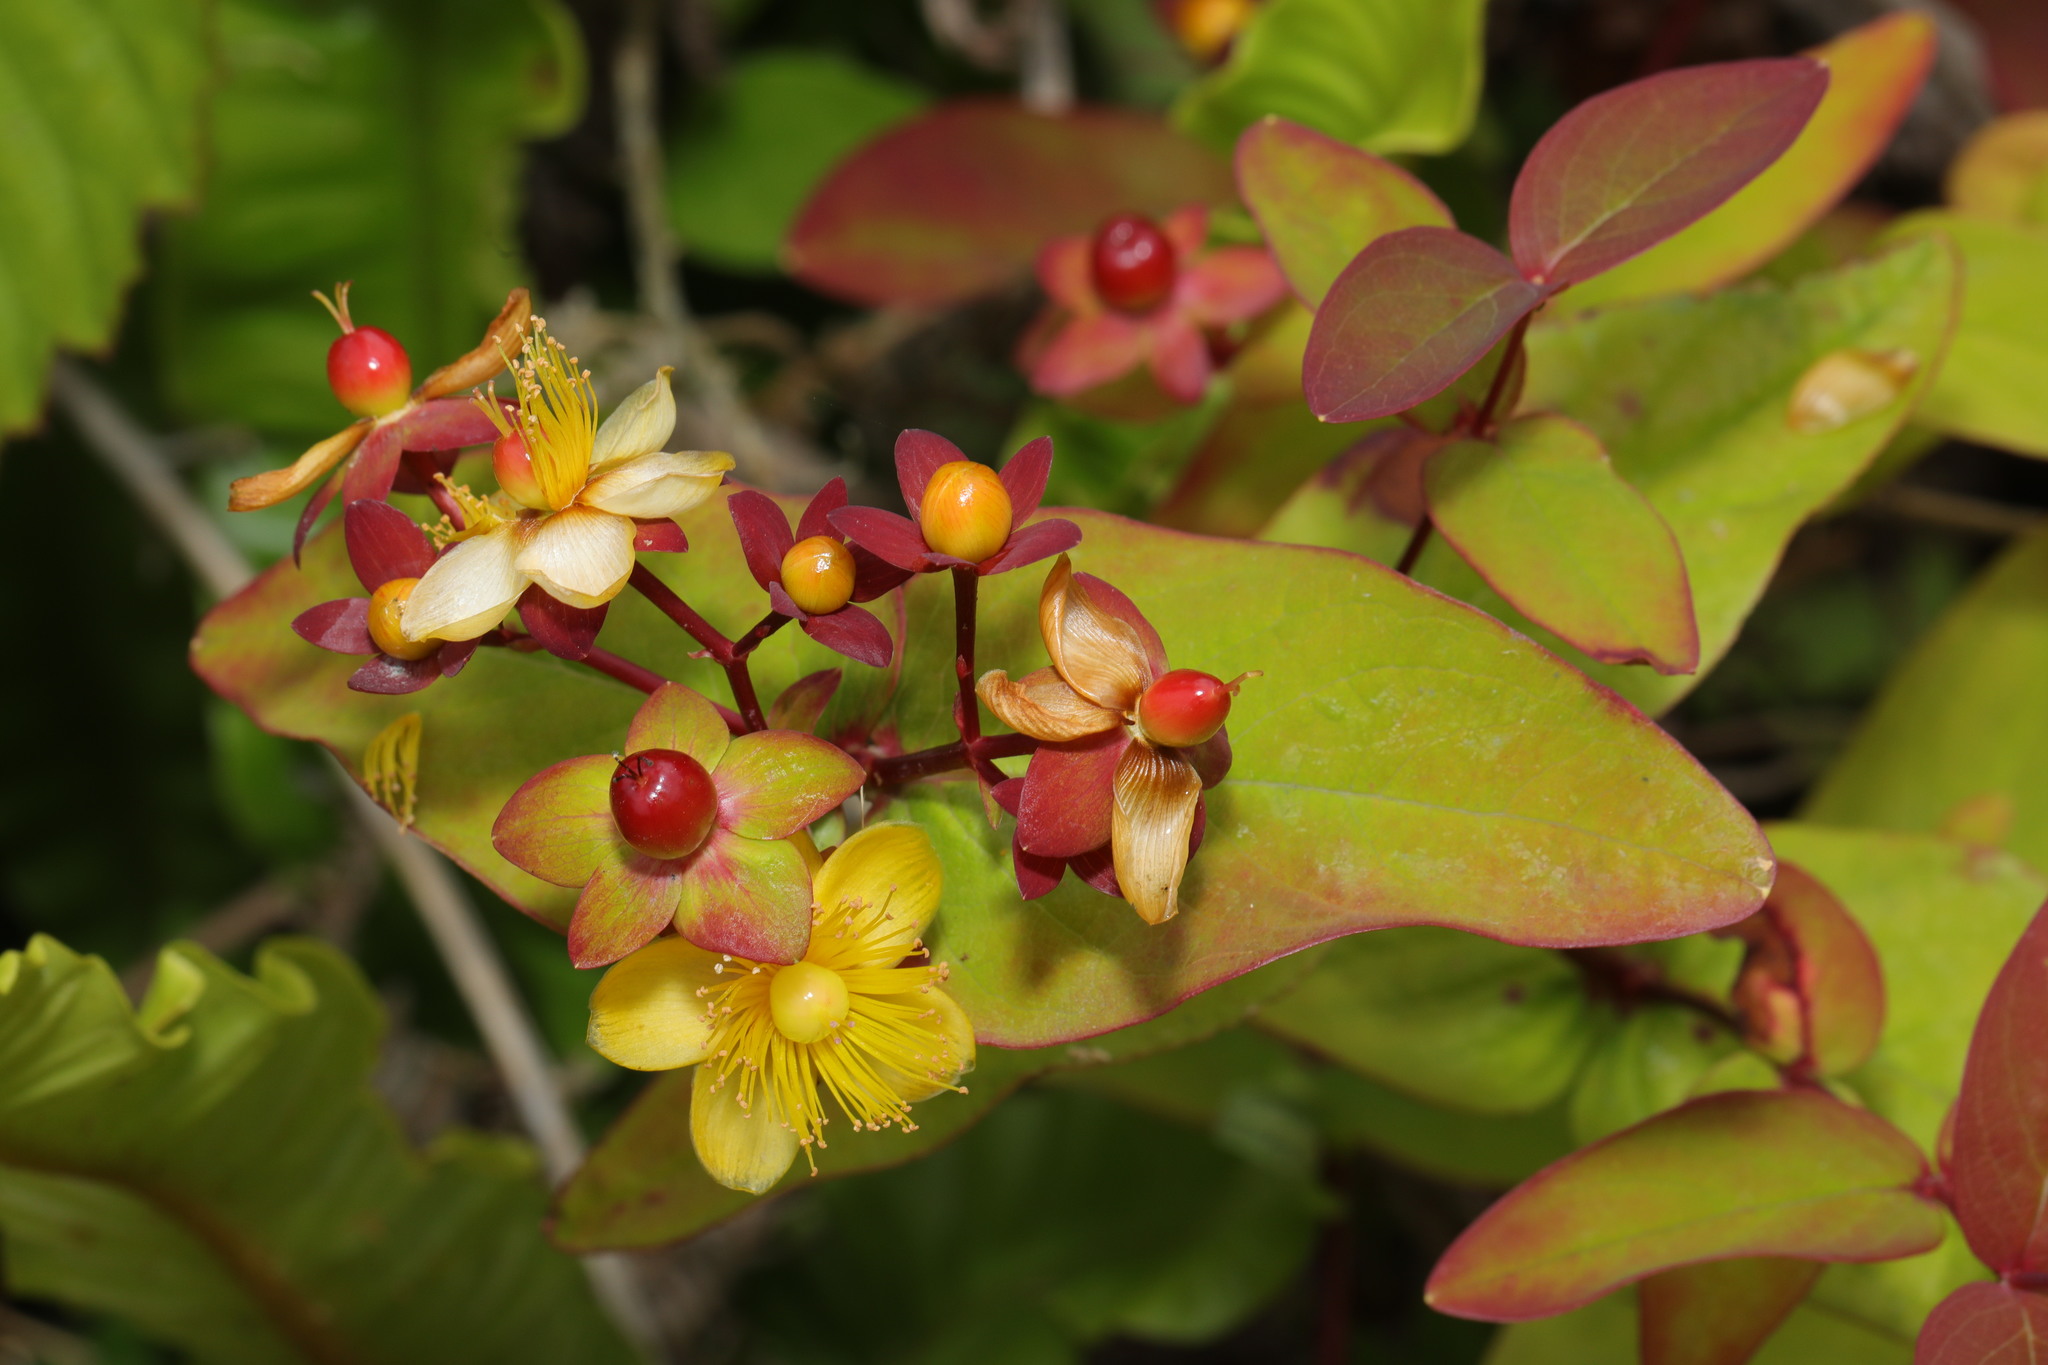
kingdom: Plantae
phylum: Tracheophyta
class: Magnoliopsida
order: Malpighiales
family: Hypericaceae
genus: Hypericum
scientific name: Hypericum androsaemum
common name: Sweet-amber
